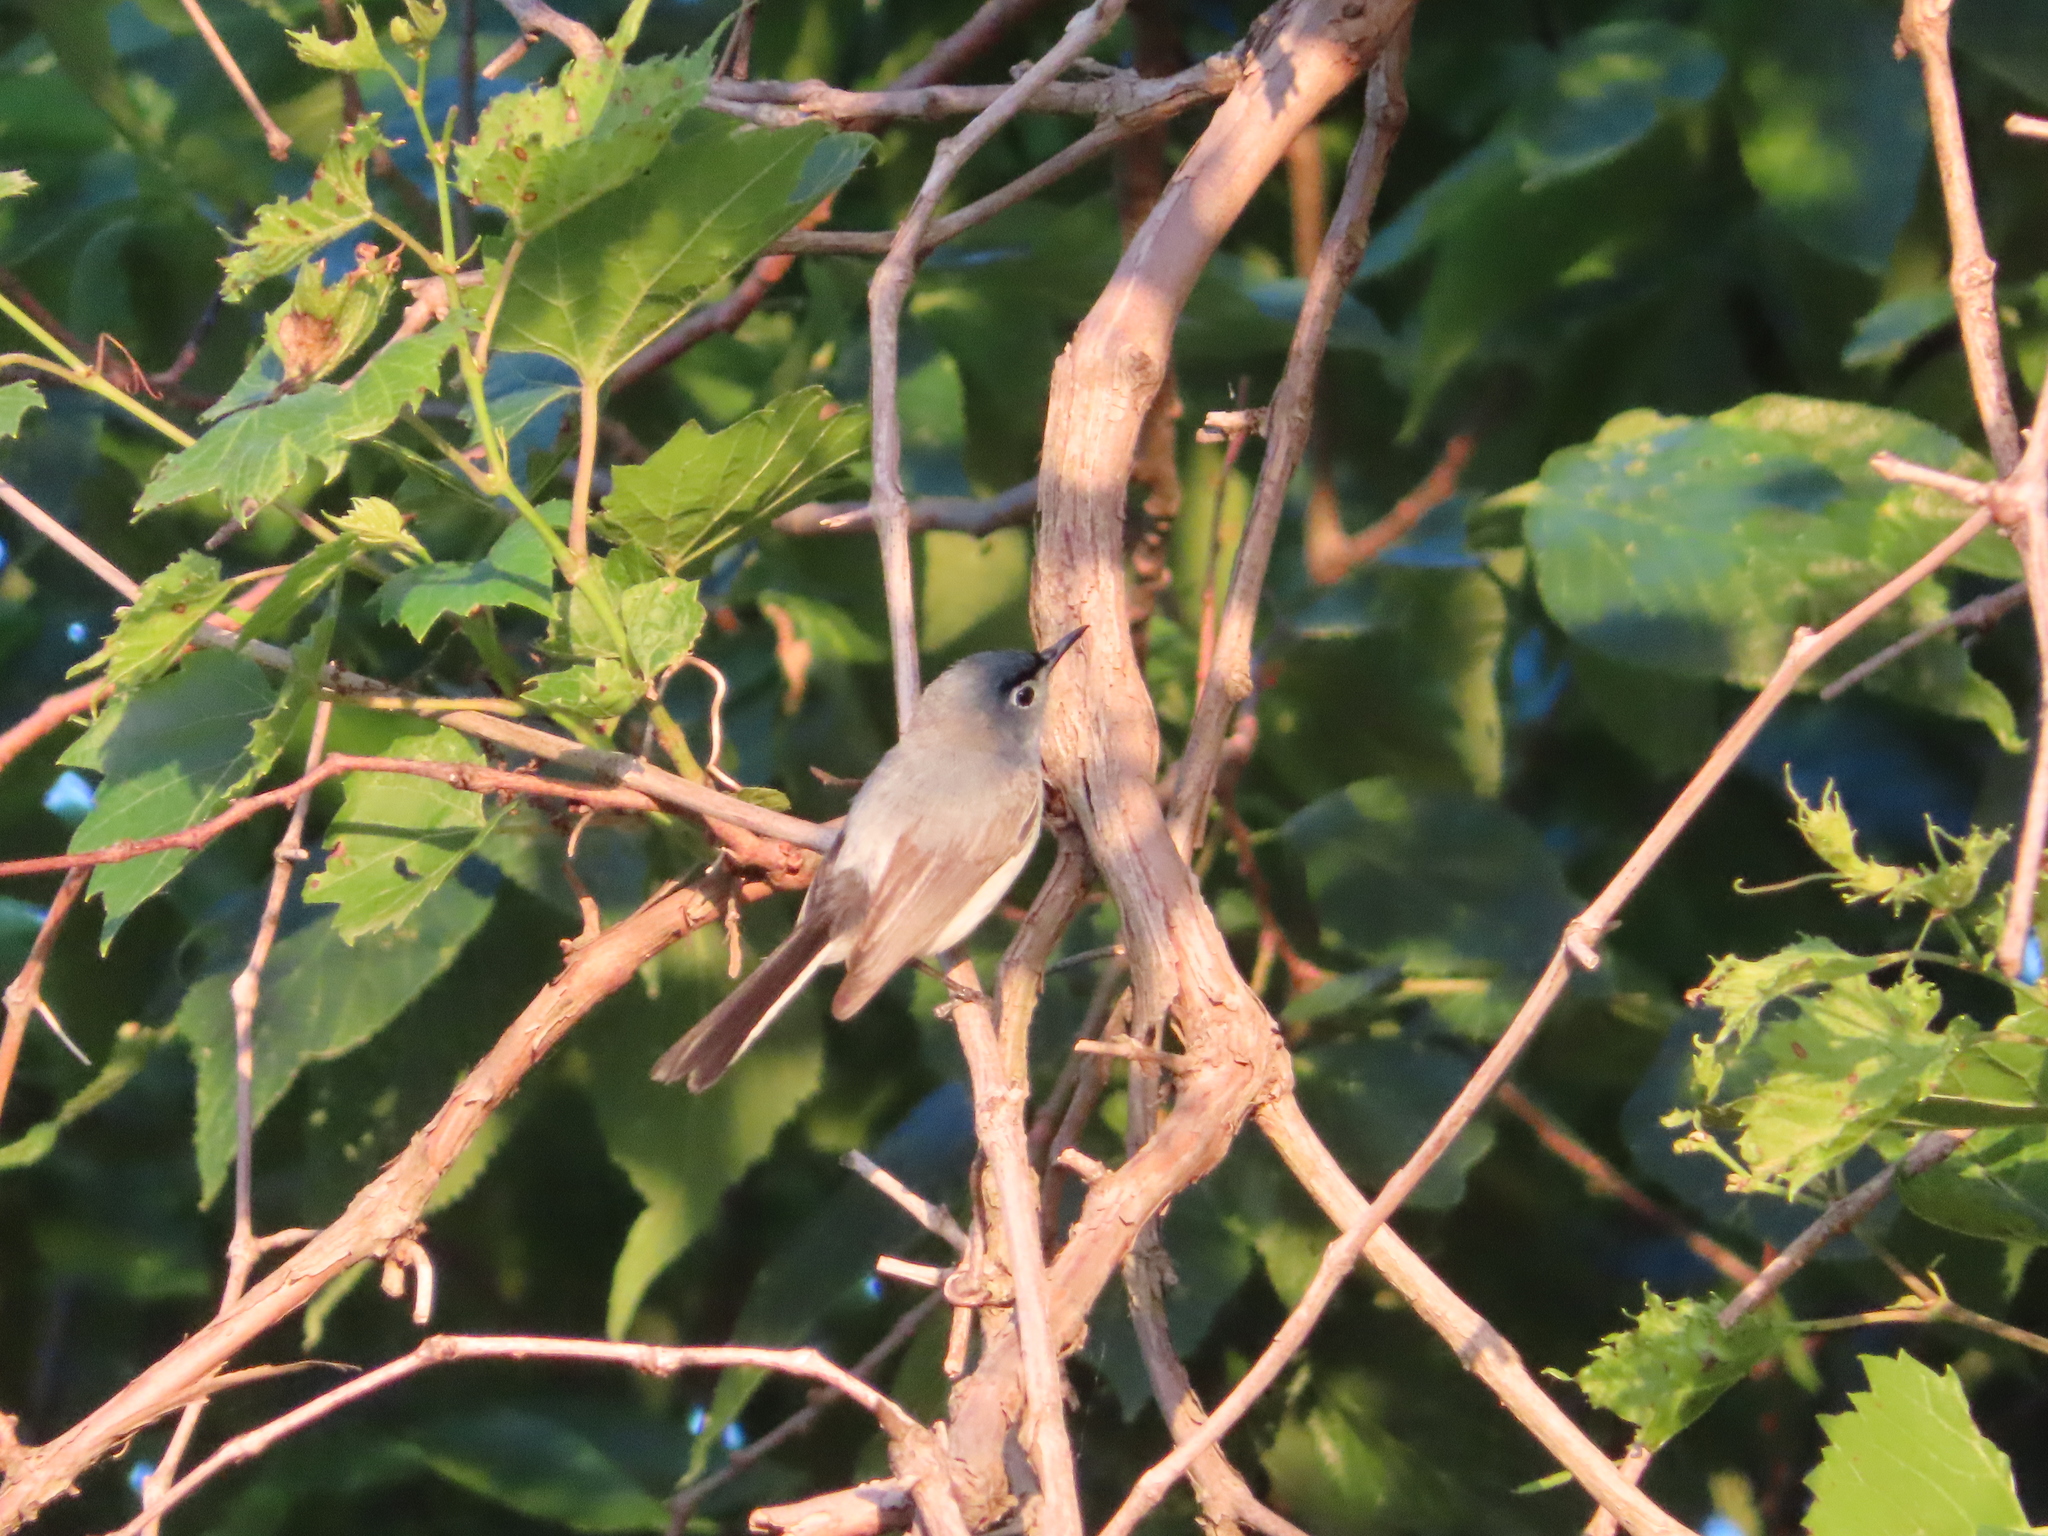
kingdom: Animalia
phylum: Chordata
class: Aves
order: Passeriformes
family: Polioptilidae
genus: Polioptila
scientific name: Polioptila caerulea
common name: Blue-gray gnatcatcher
